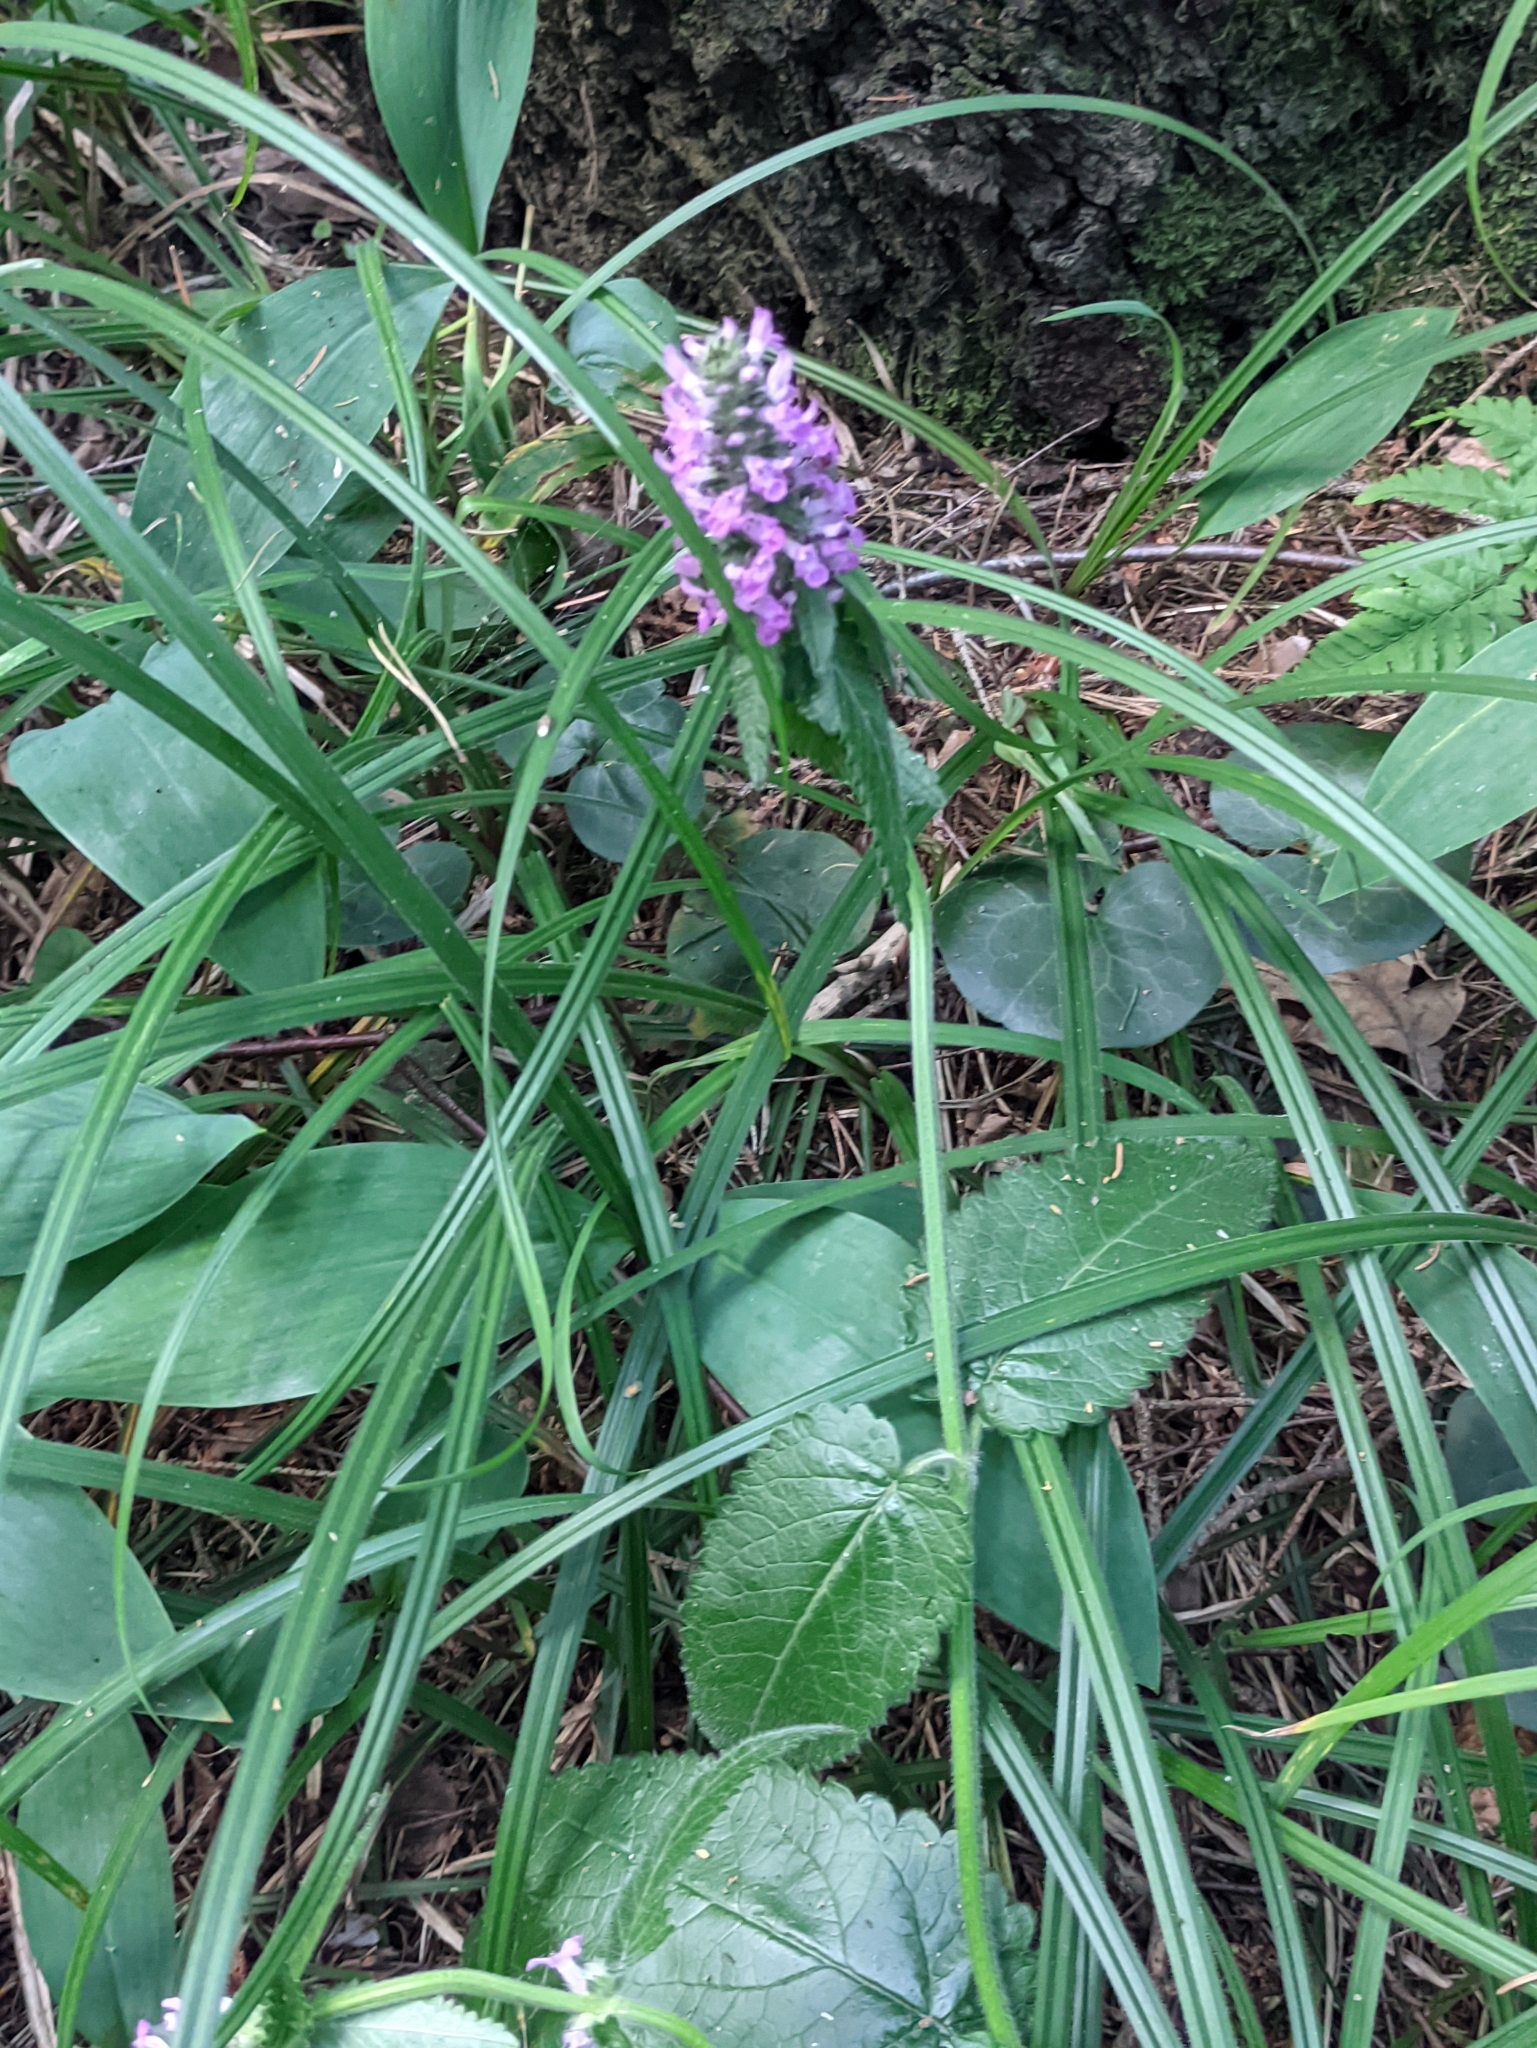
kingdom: Plantae
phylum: Tracheophyta
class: Magnoliopsida
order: Lamiales
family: Lamiaceae
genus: Betonica
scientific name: Betonica officinalis
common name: Bishop's-wort
